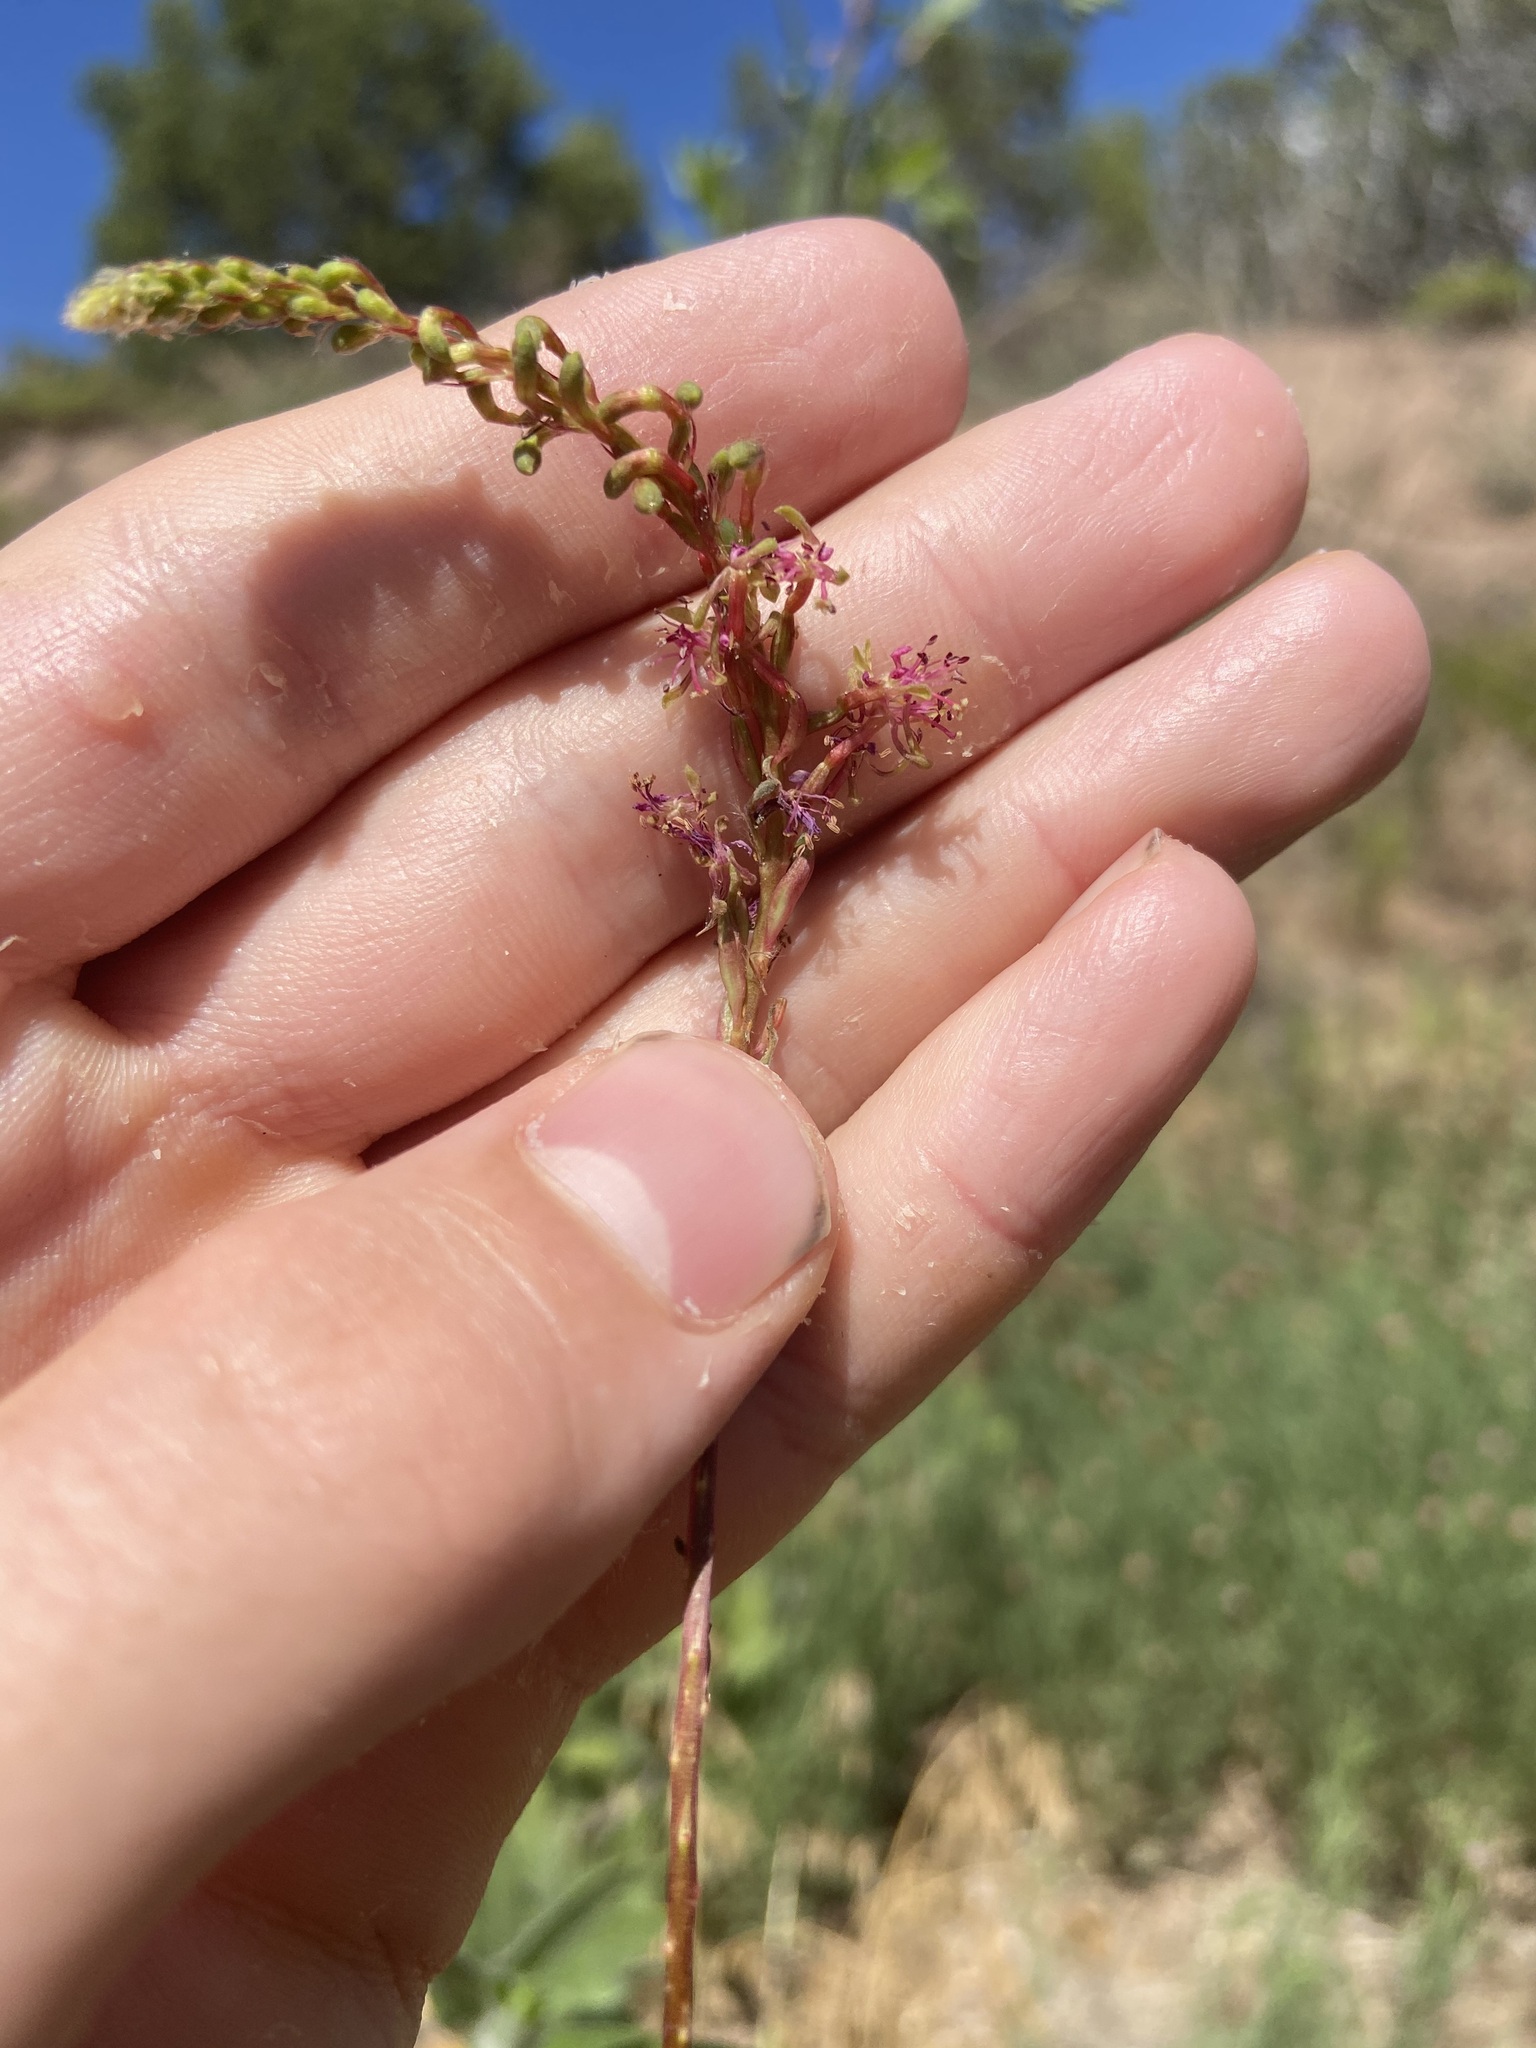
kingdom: Plantae
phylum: Tracheophyta
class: Magnoliopsida
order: Myrtales
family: Onagraceae
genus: Oenothera
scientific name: Oenothera curtiflora
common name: Velvetweed
